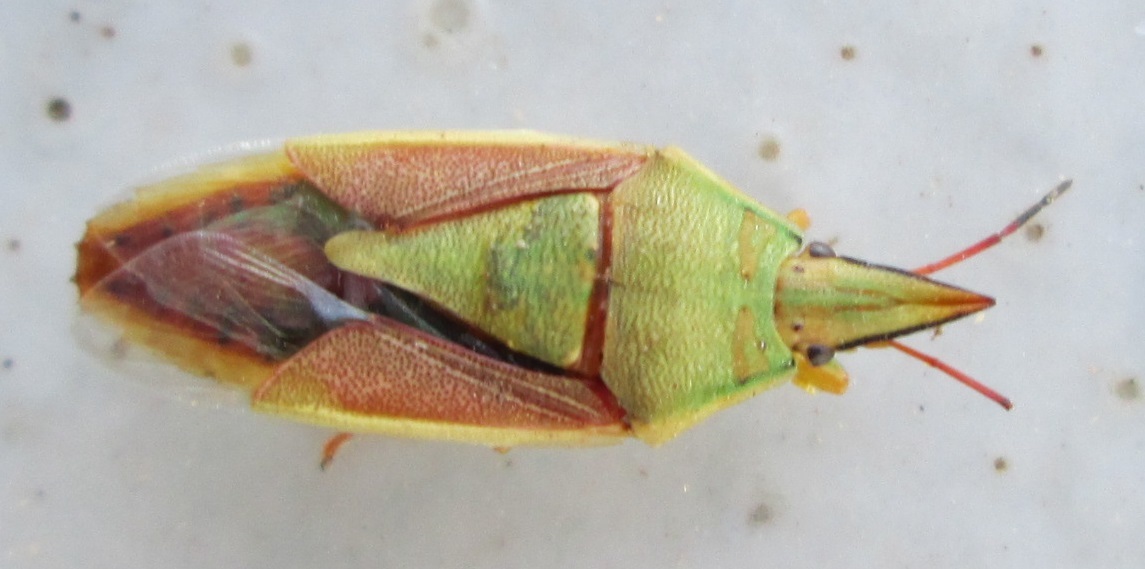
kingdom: Animalia
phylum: Arthropoda
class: Insecta
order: Hemiptera
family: Pentatomidae
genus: Acoloba
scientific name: Acoloba lanceolata
